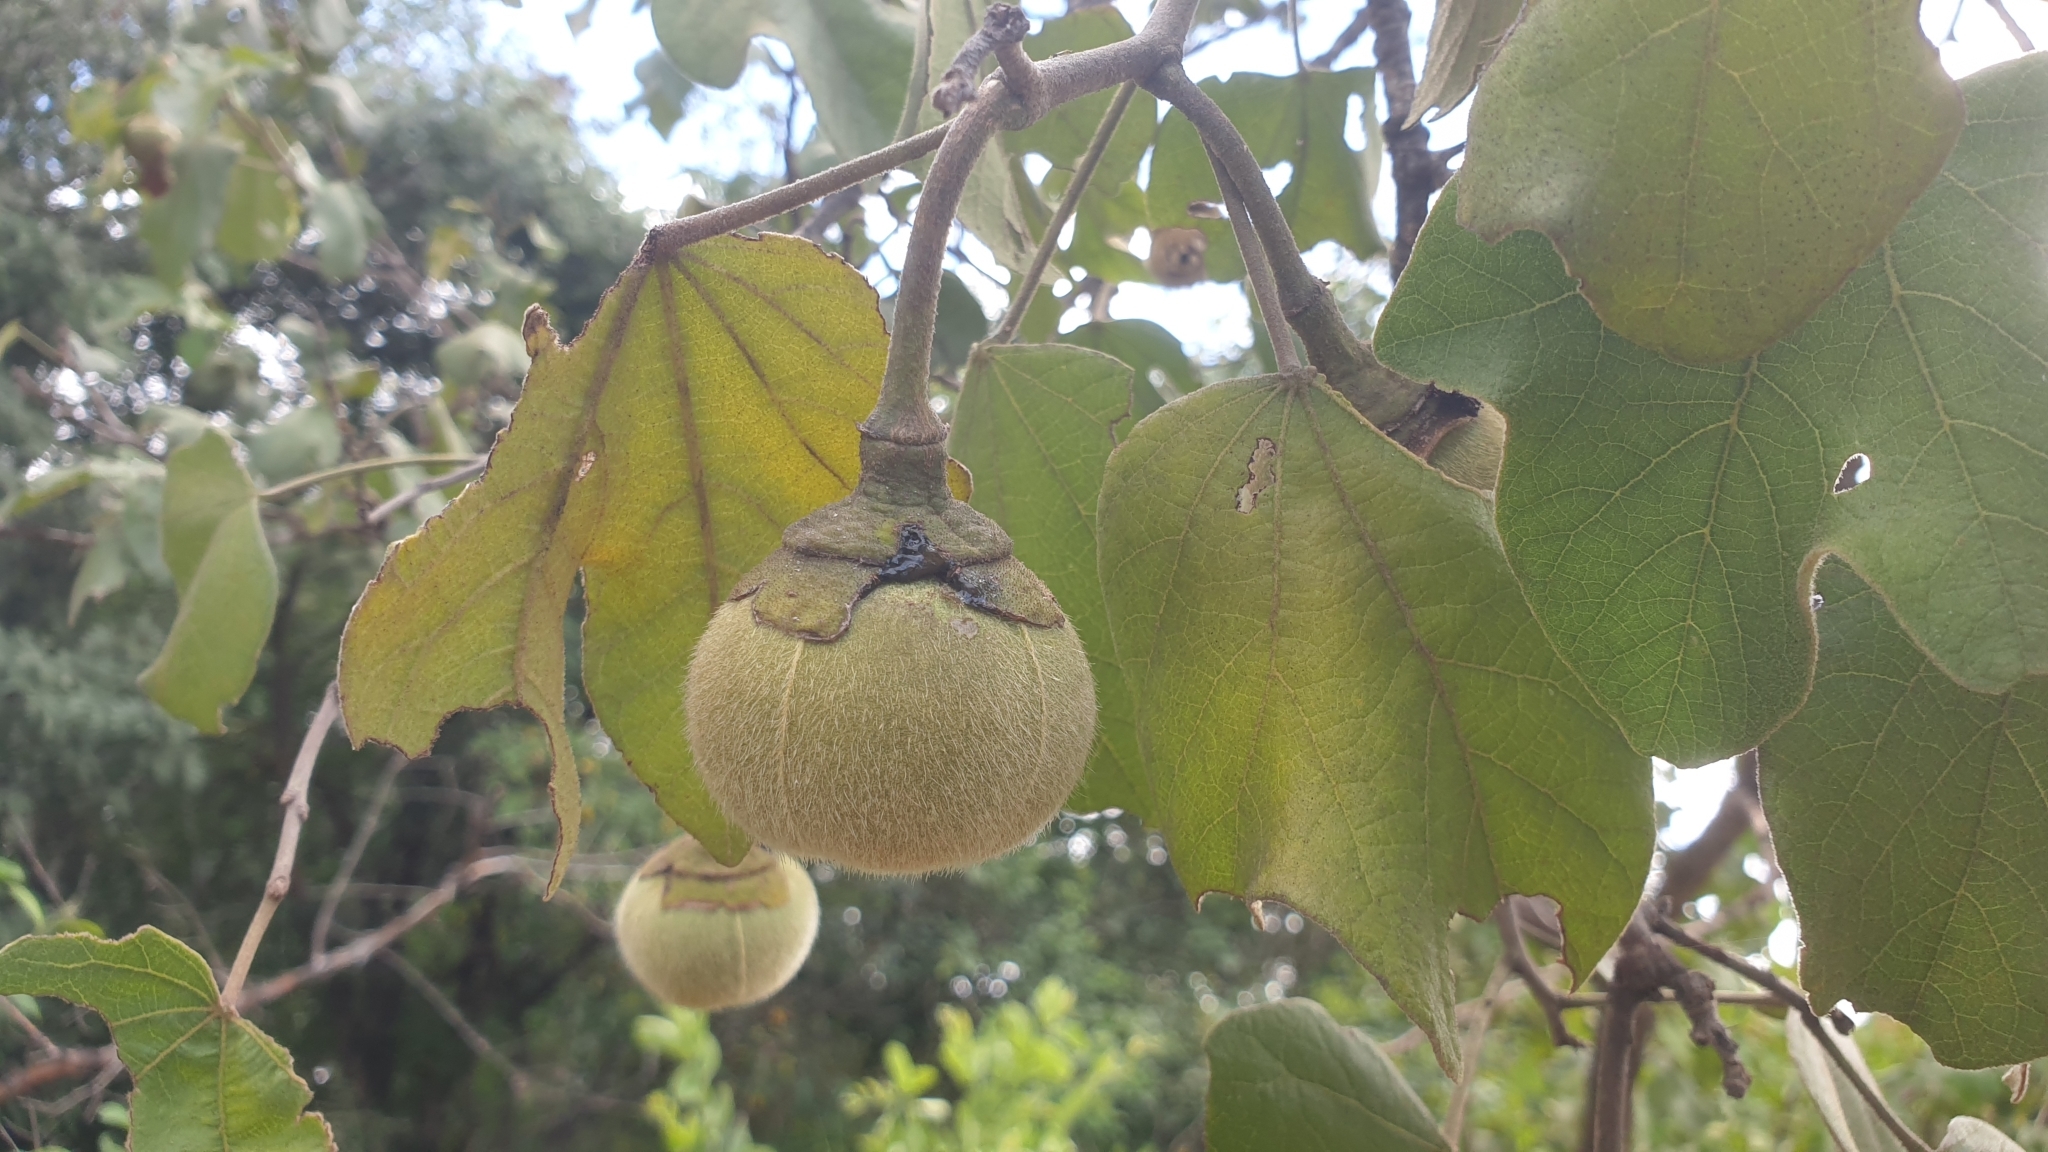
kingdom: Plantae
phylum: Tracheophyta
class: Magnoliopsida
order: Malvales
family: Malvaceae
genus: Thespesia
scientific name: Thespesia garckeana
